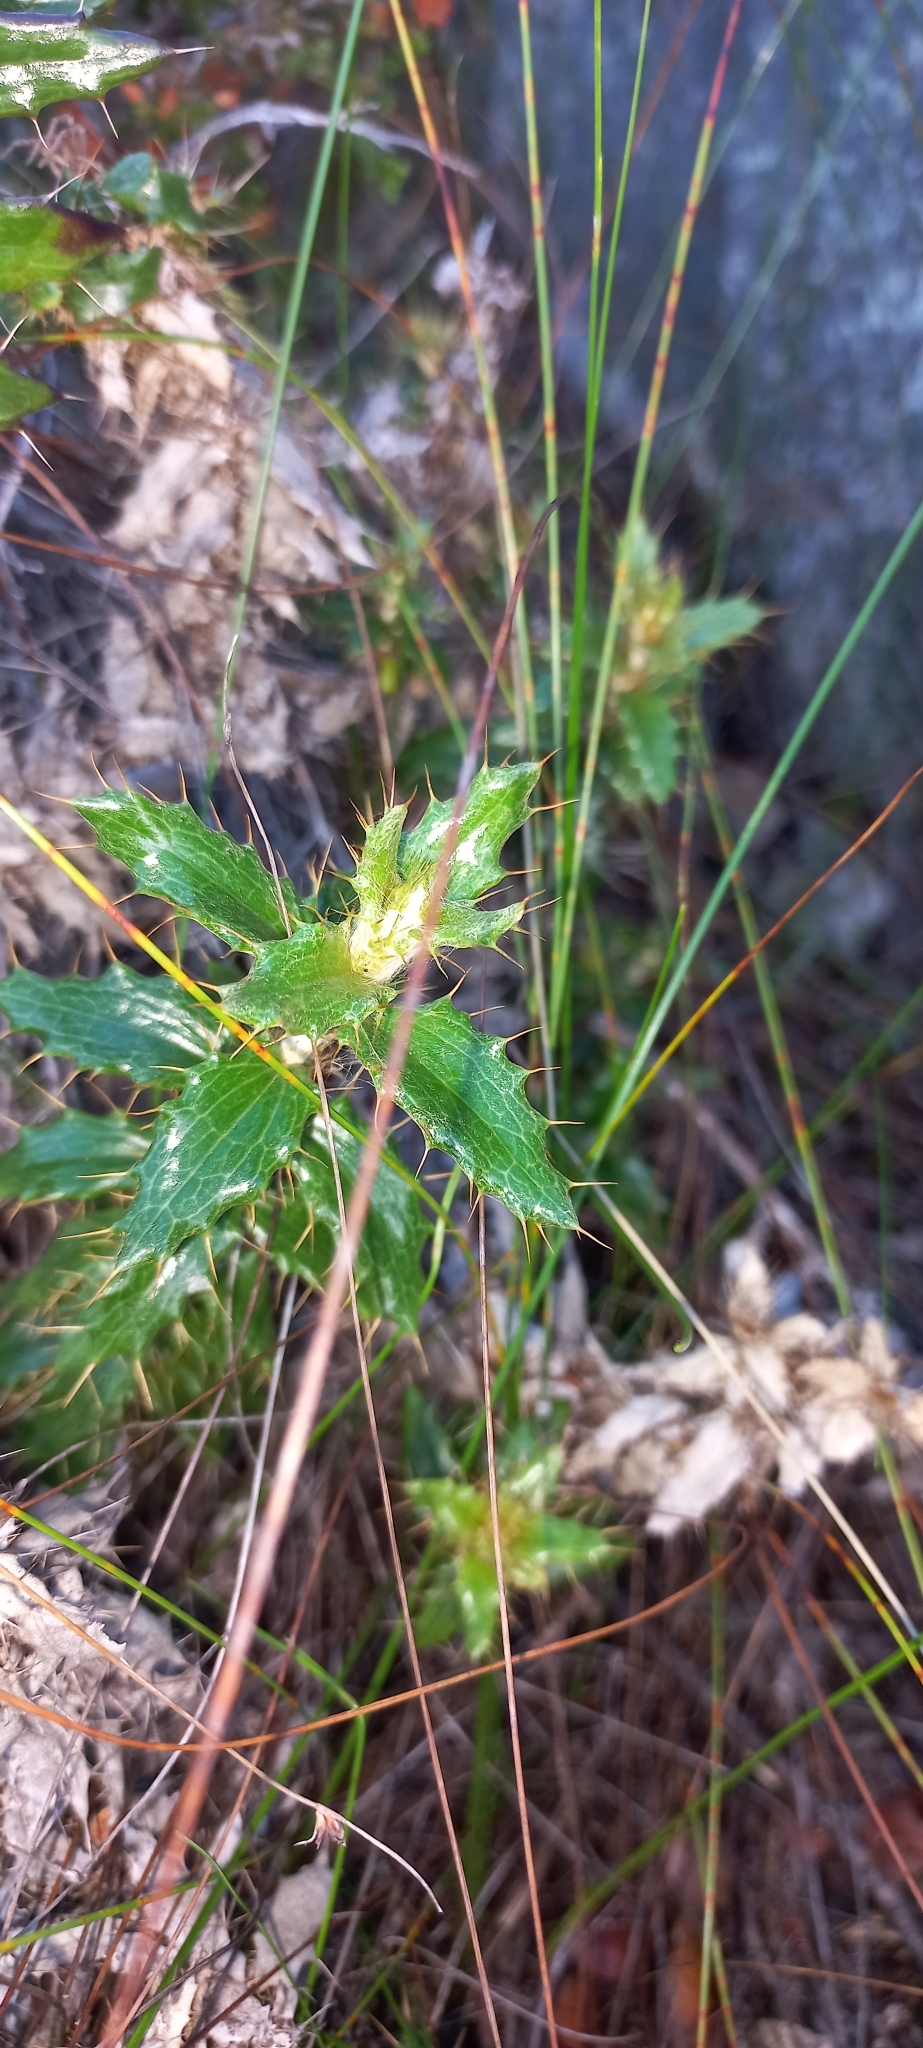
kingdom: Plantae
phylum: Tracheophyta
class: Magnoliopsida
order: Asterales
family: Asteraceae
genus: Berkheya
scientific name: Berkheya barbata
